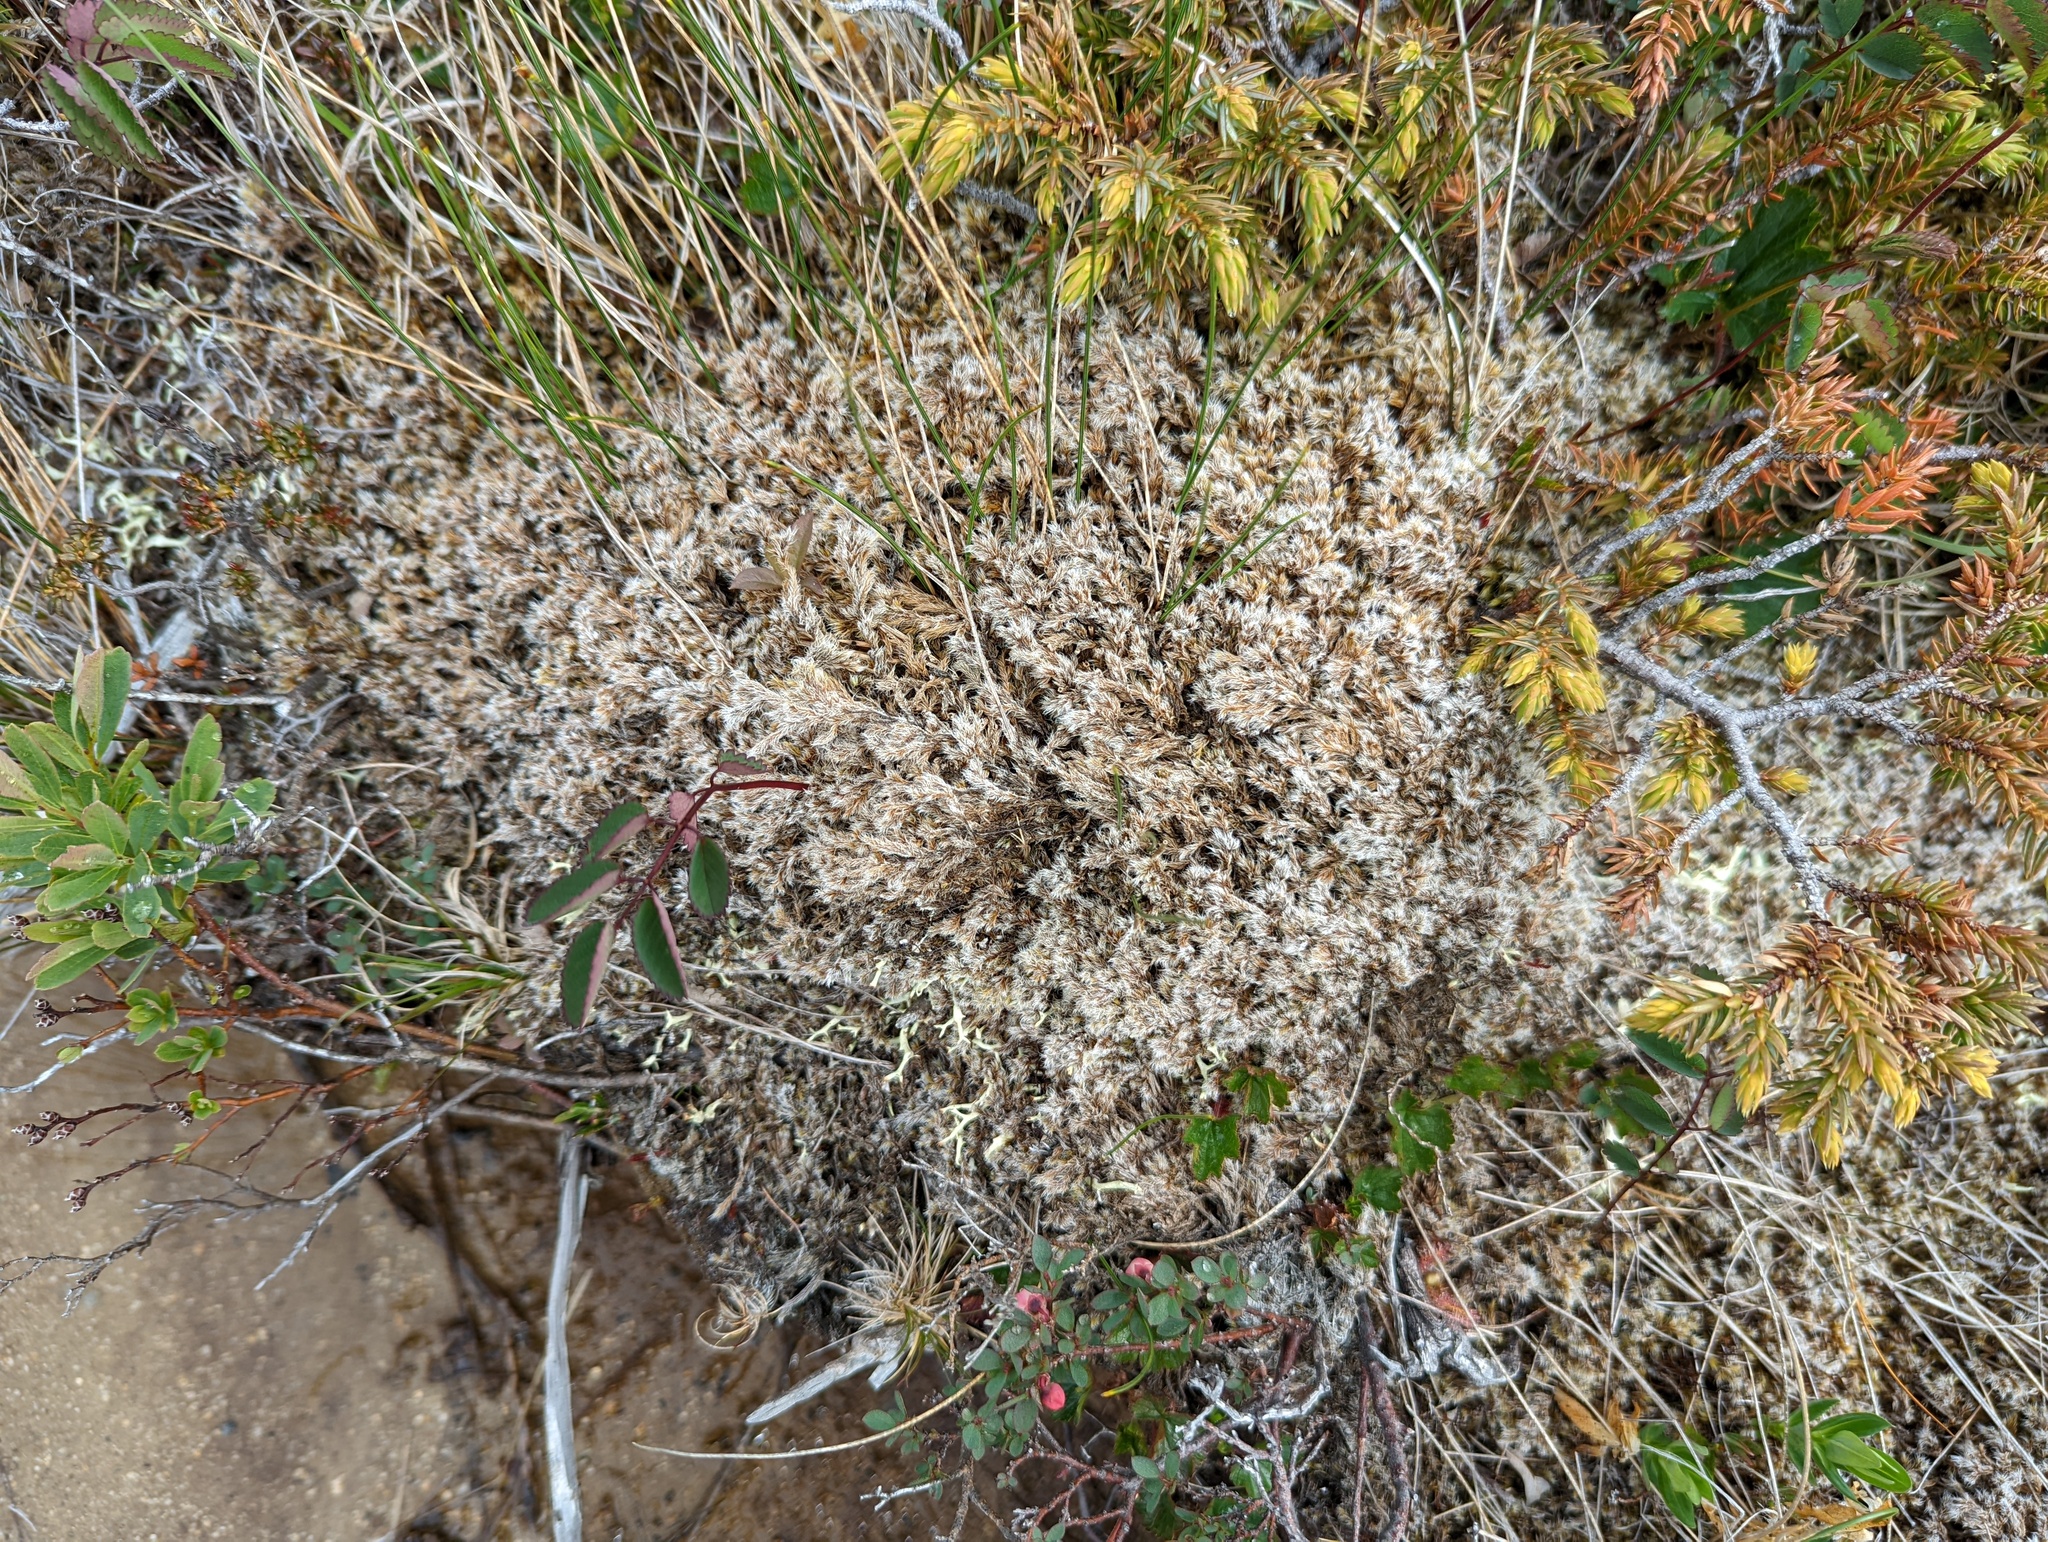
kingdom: Plantae
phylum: Bryophyta
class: Bryopsida
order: Grimmiales
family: Grimmiaceae
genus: Racomitrium
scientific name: Racomitrium lanuginosum
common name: Hoary rock moss
